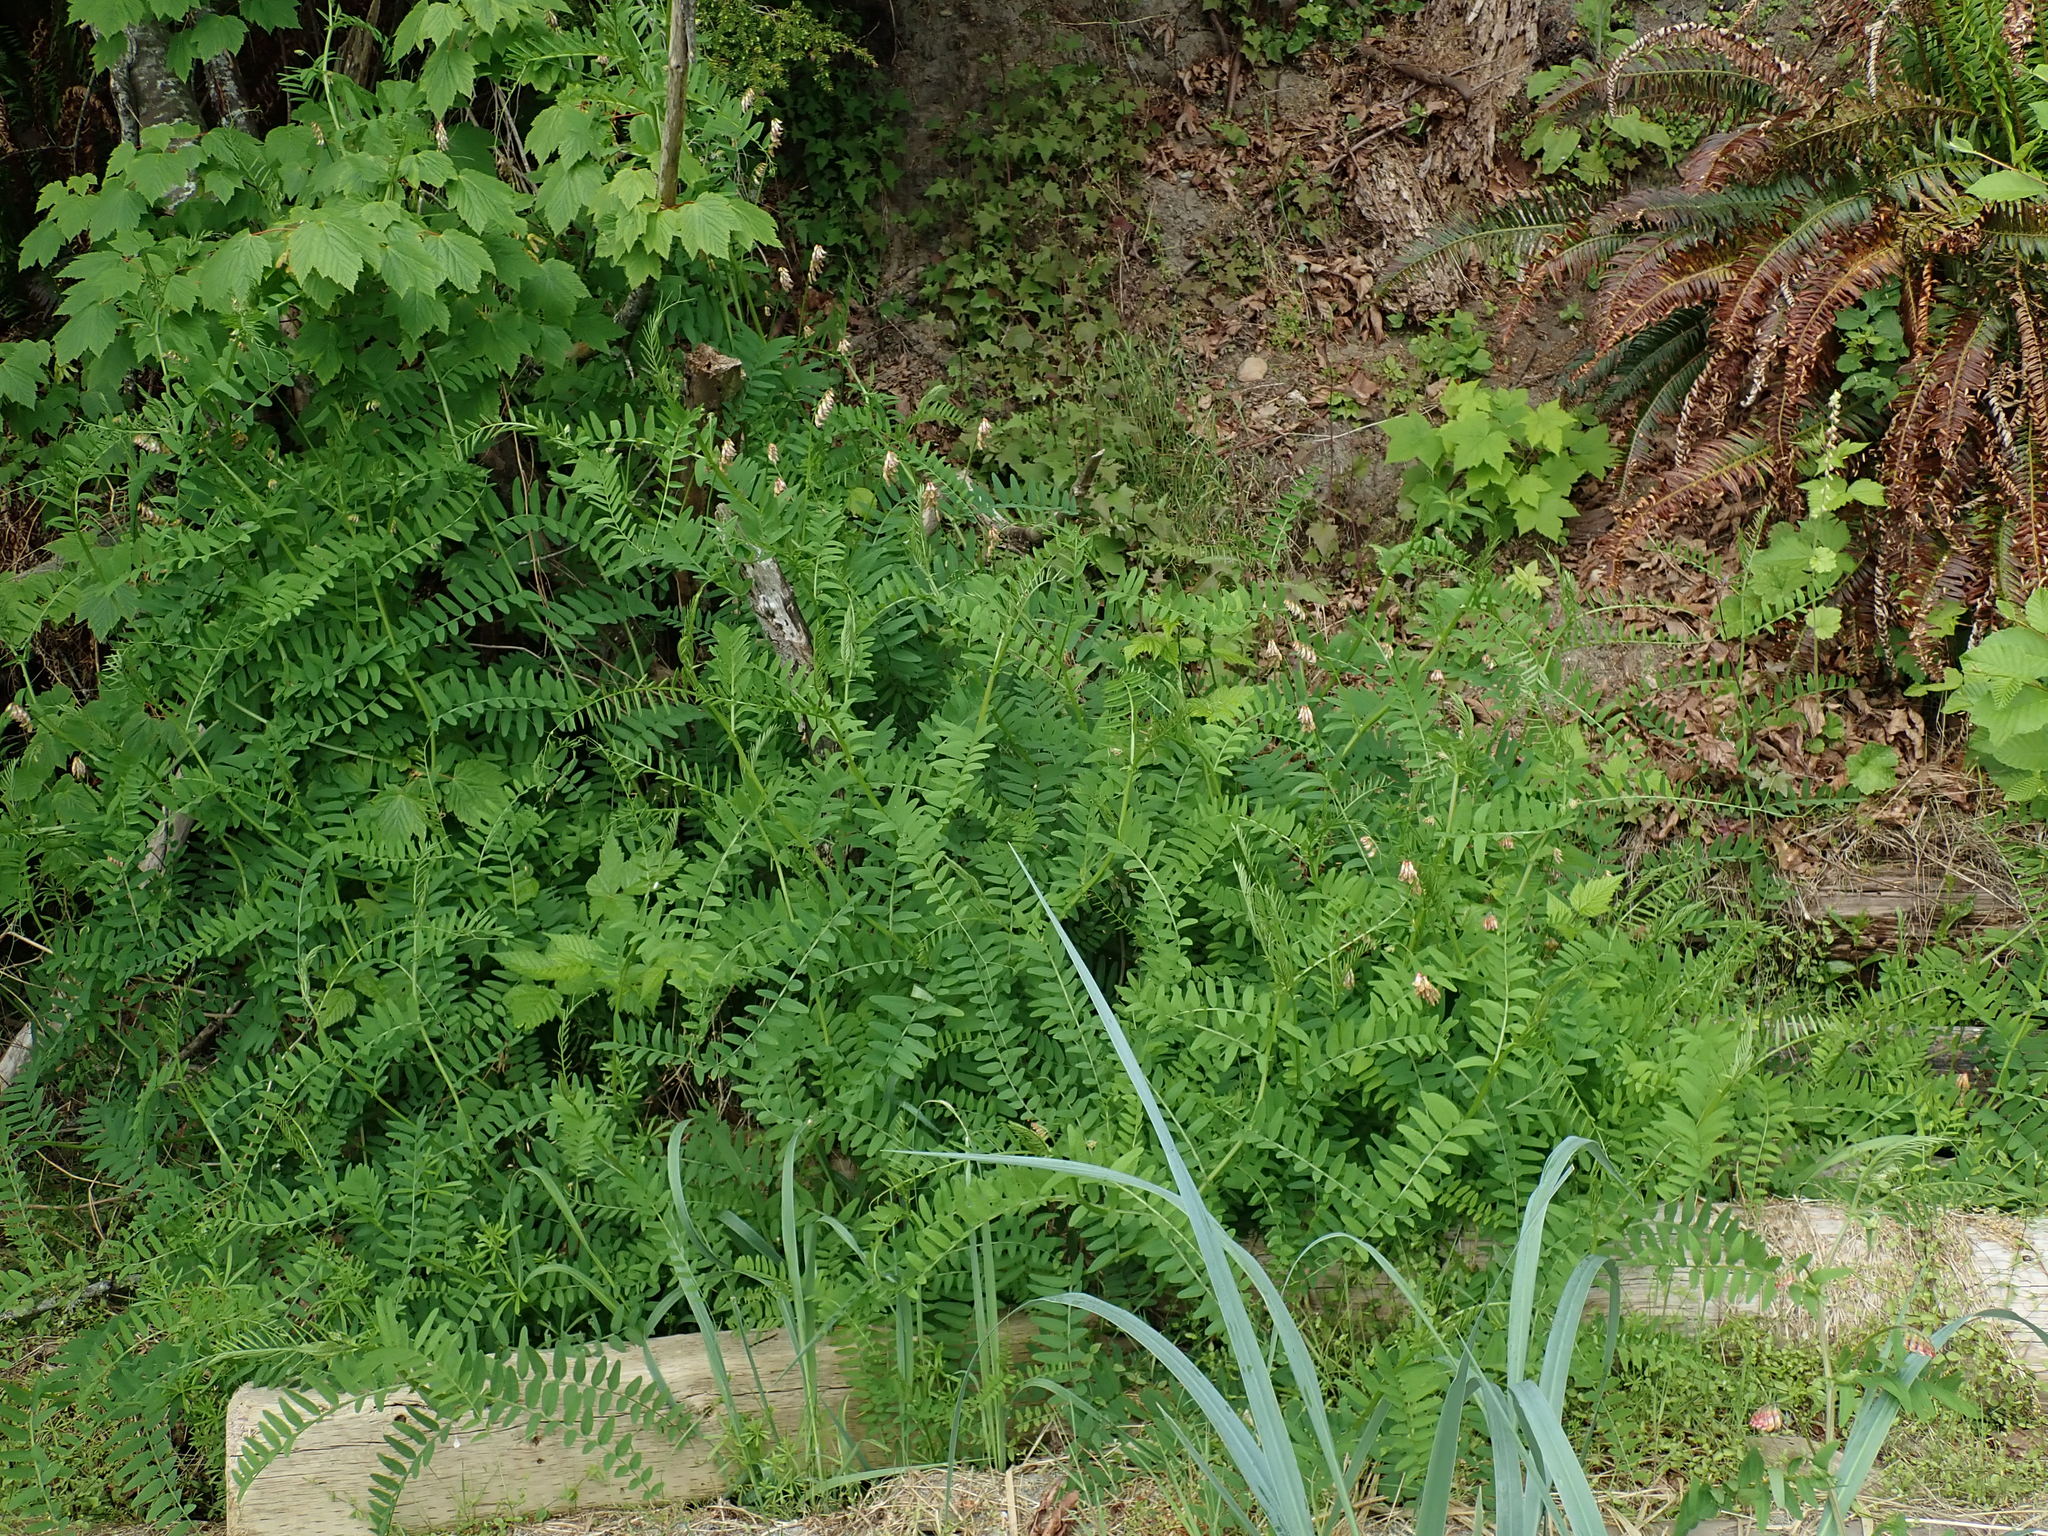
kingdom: Plantae
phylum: Tracheophyta
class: Magnoliopsida
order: Fabales
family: Fabaceae
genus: Vicia
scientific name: Vicia
